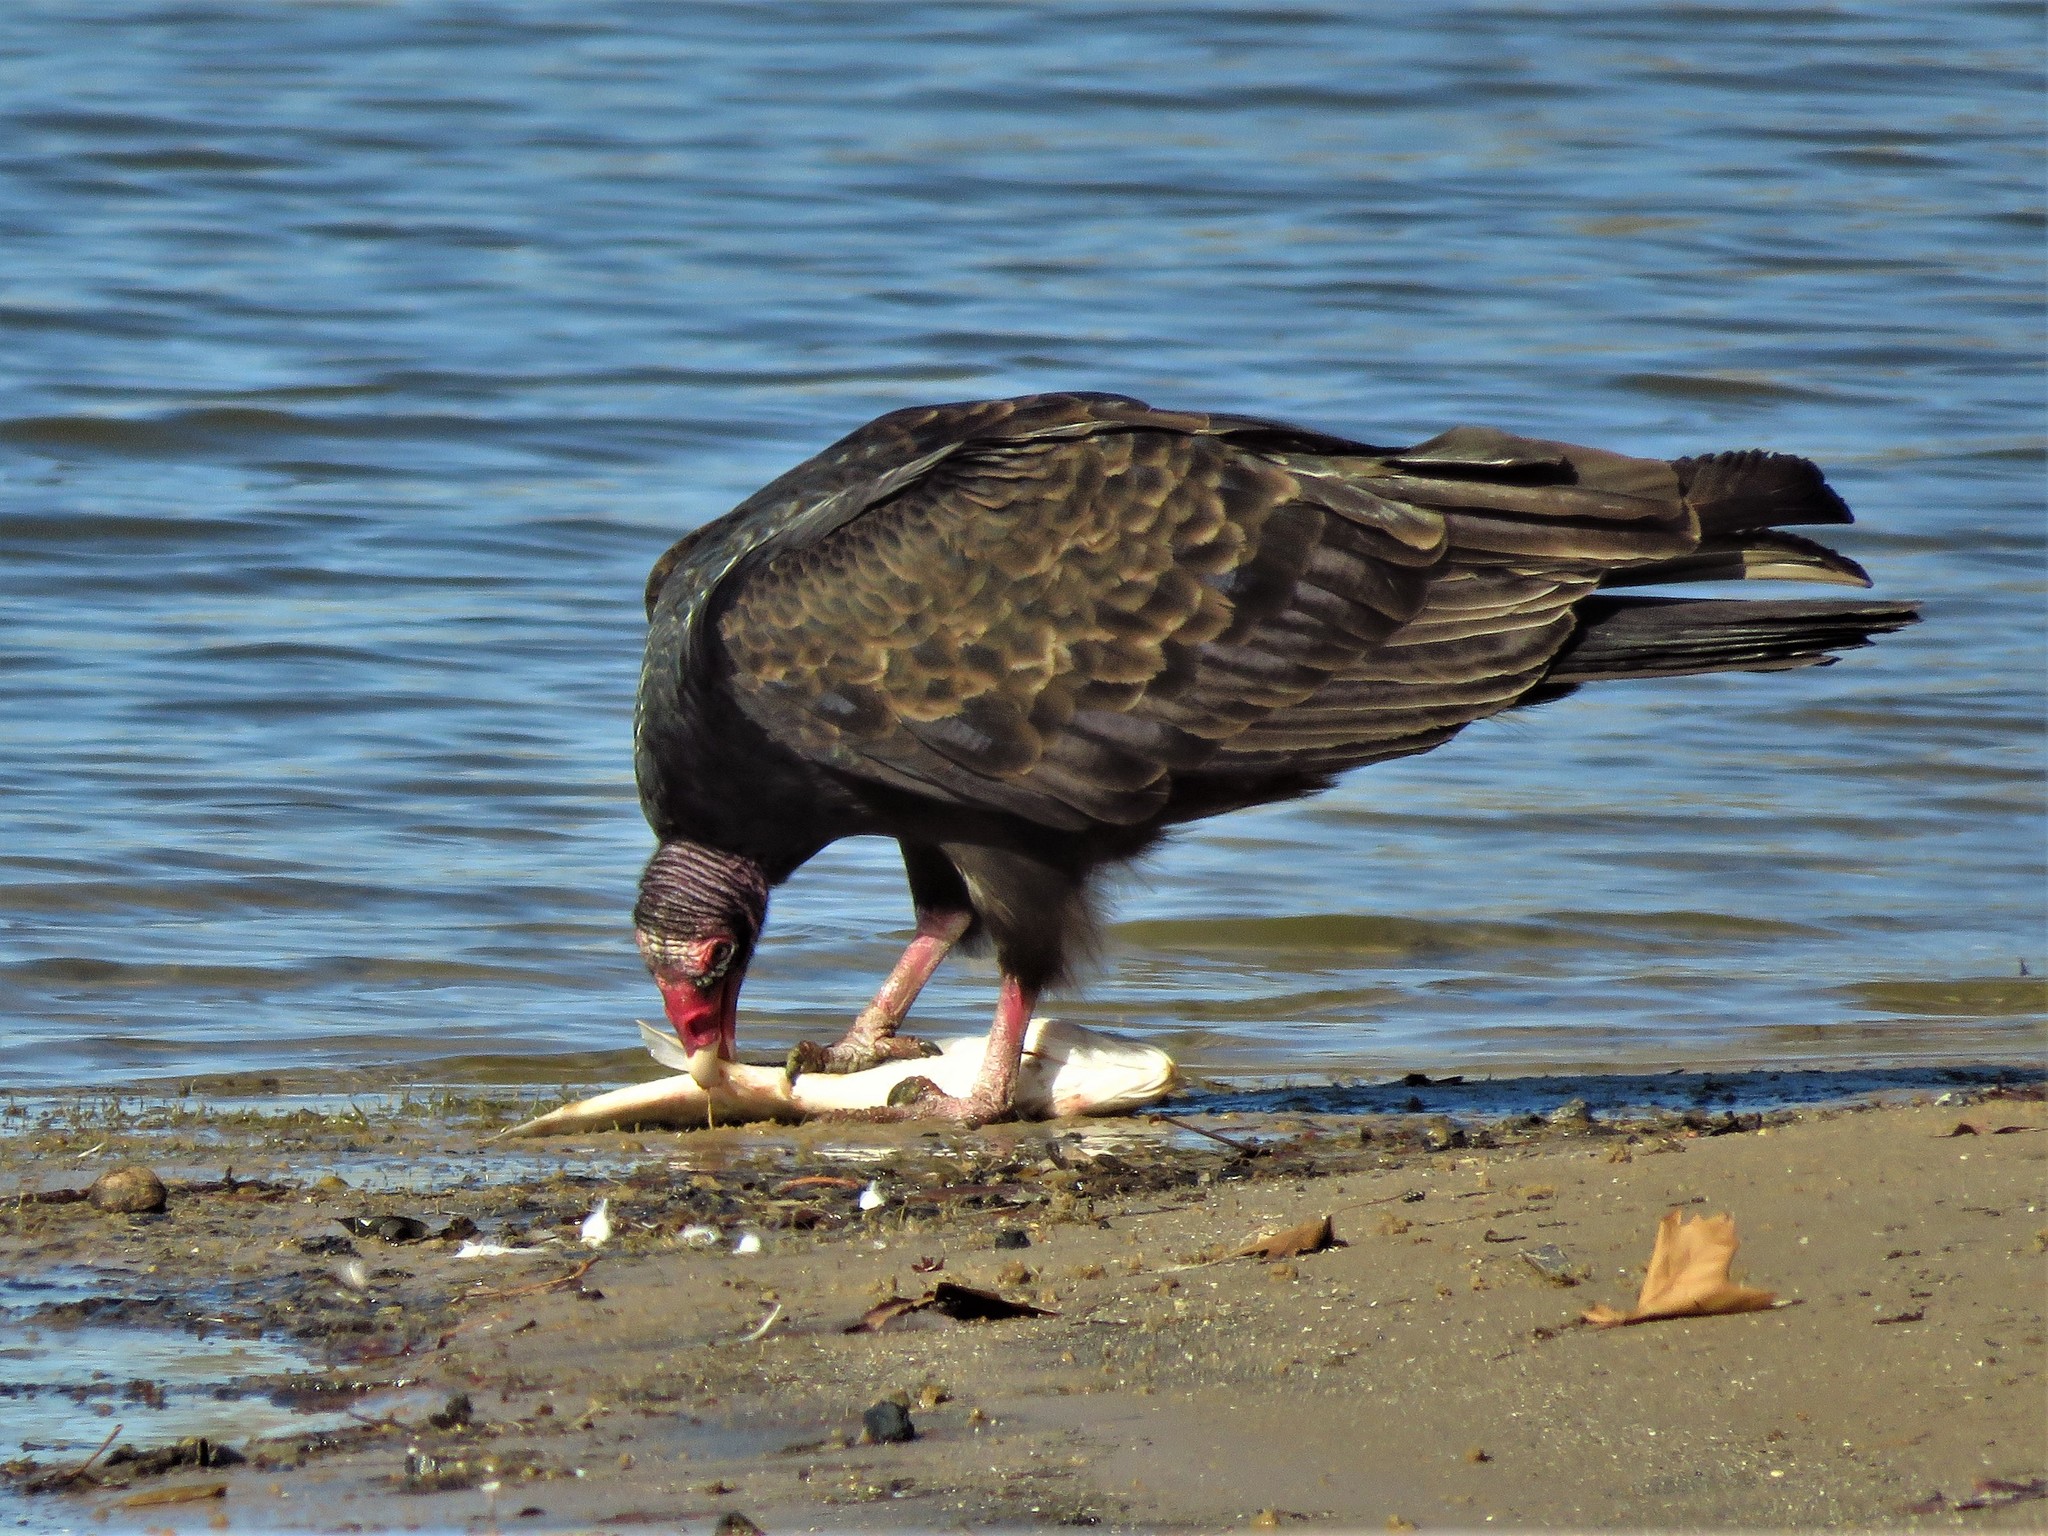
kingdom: Animalia
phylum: Chordata
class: Aves
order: Accipitriformes
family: Cathartidae
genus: Cathartes
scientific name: Cathartes aura
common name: Turkey vulture
